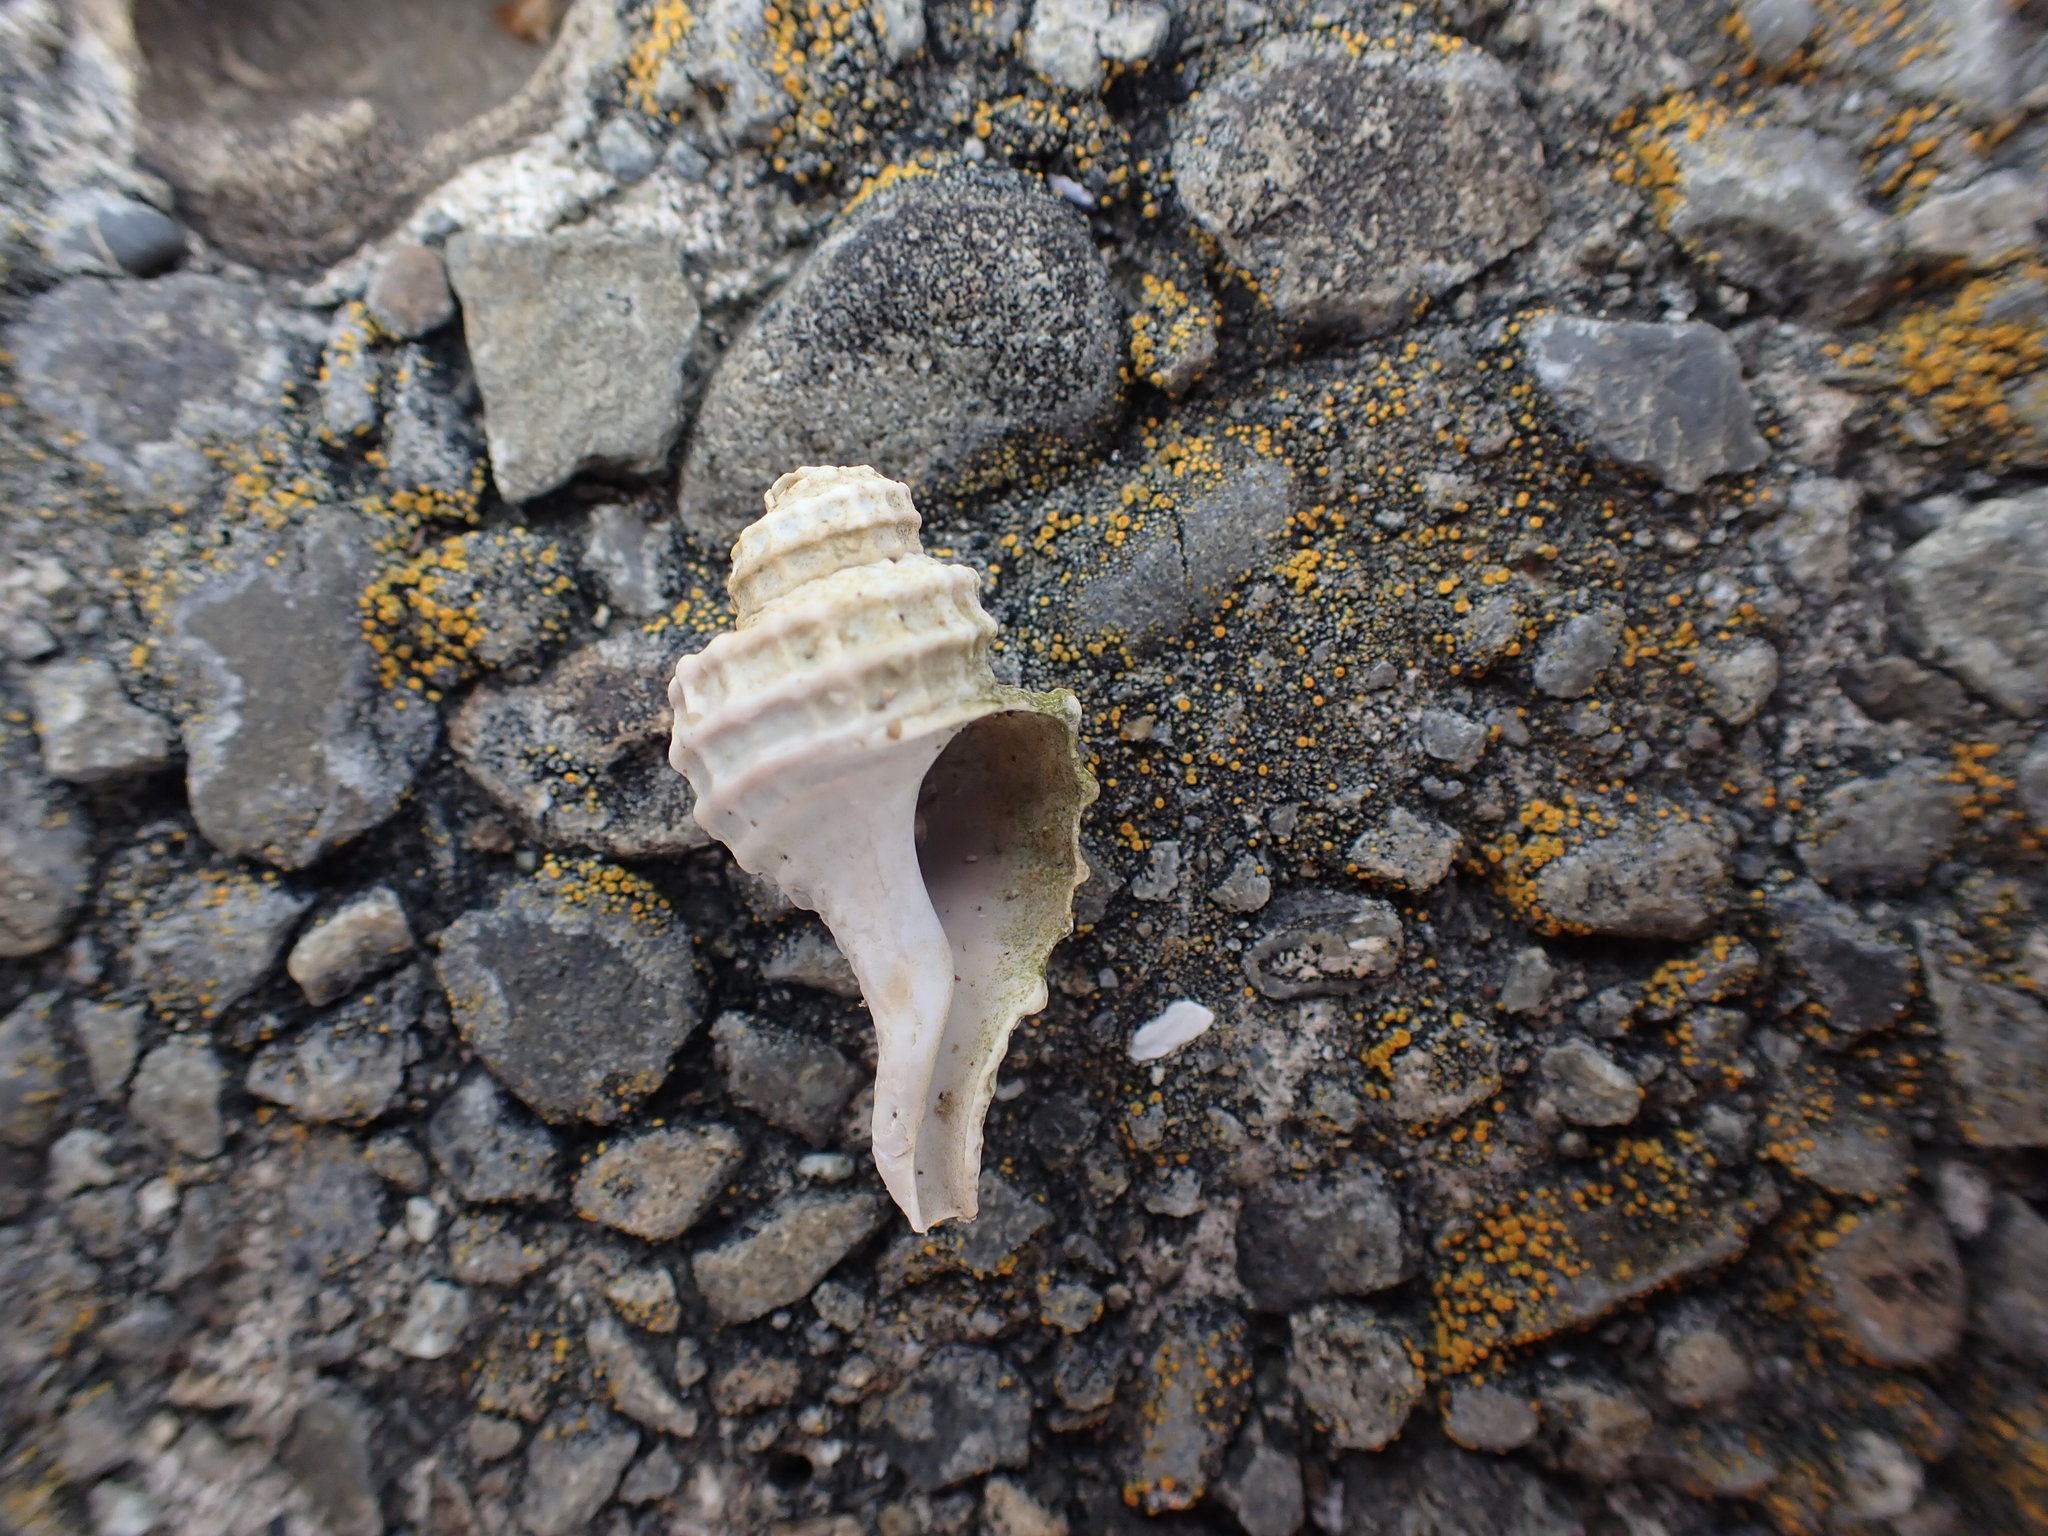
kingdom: Animalia
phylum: Mollusca
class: Gastropoda
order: Neogastropoda
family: Muricidae
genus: Zeatrophon
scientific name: Zeatrophon ambiguus
